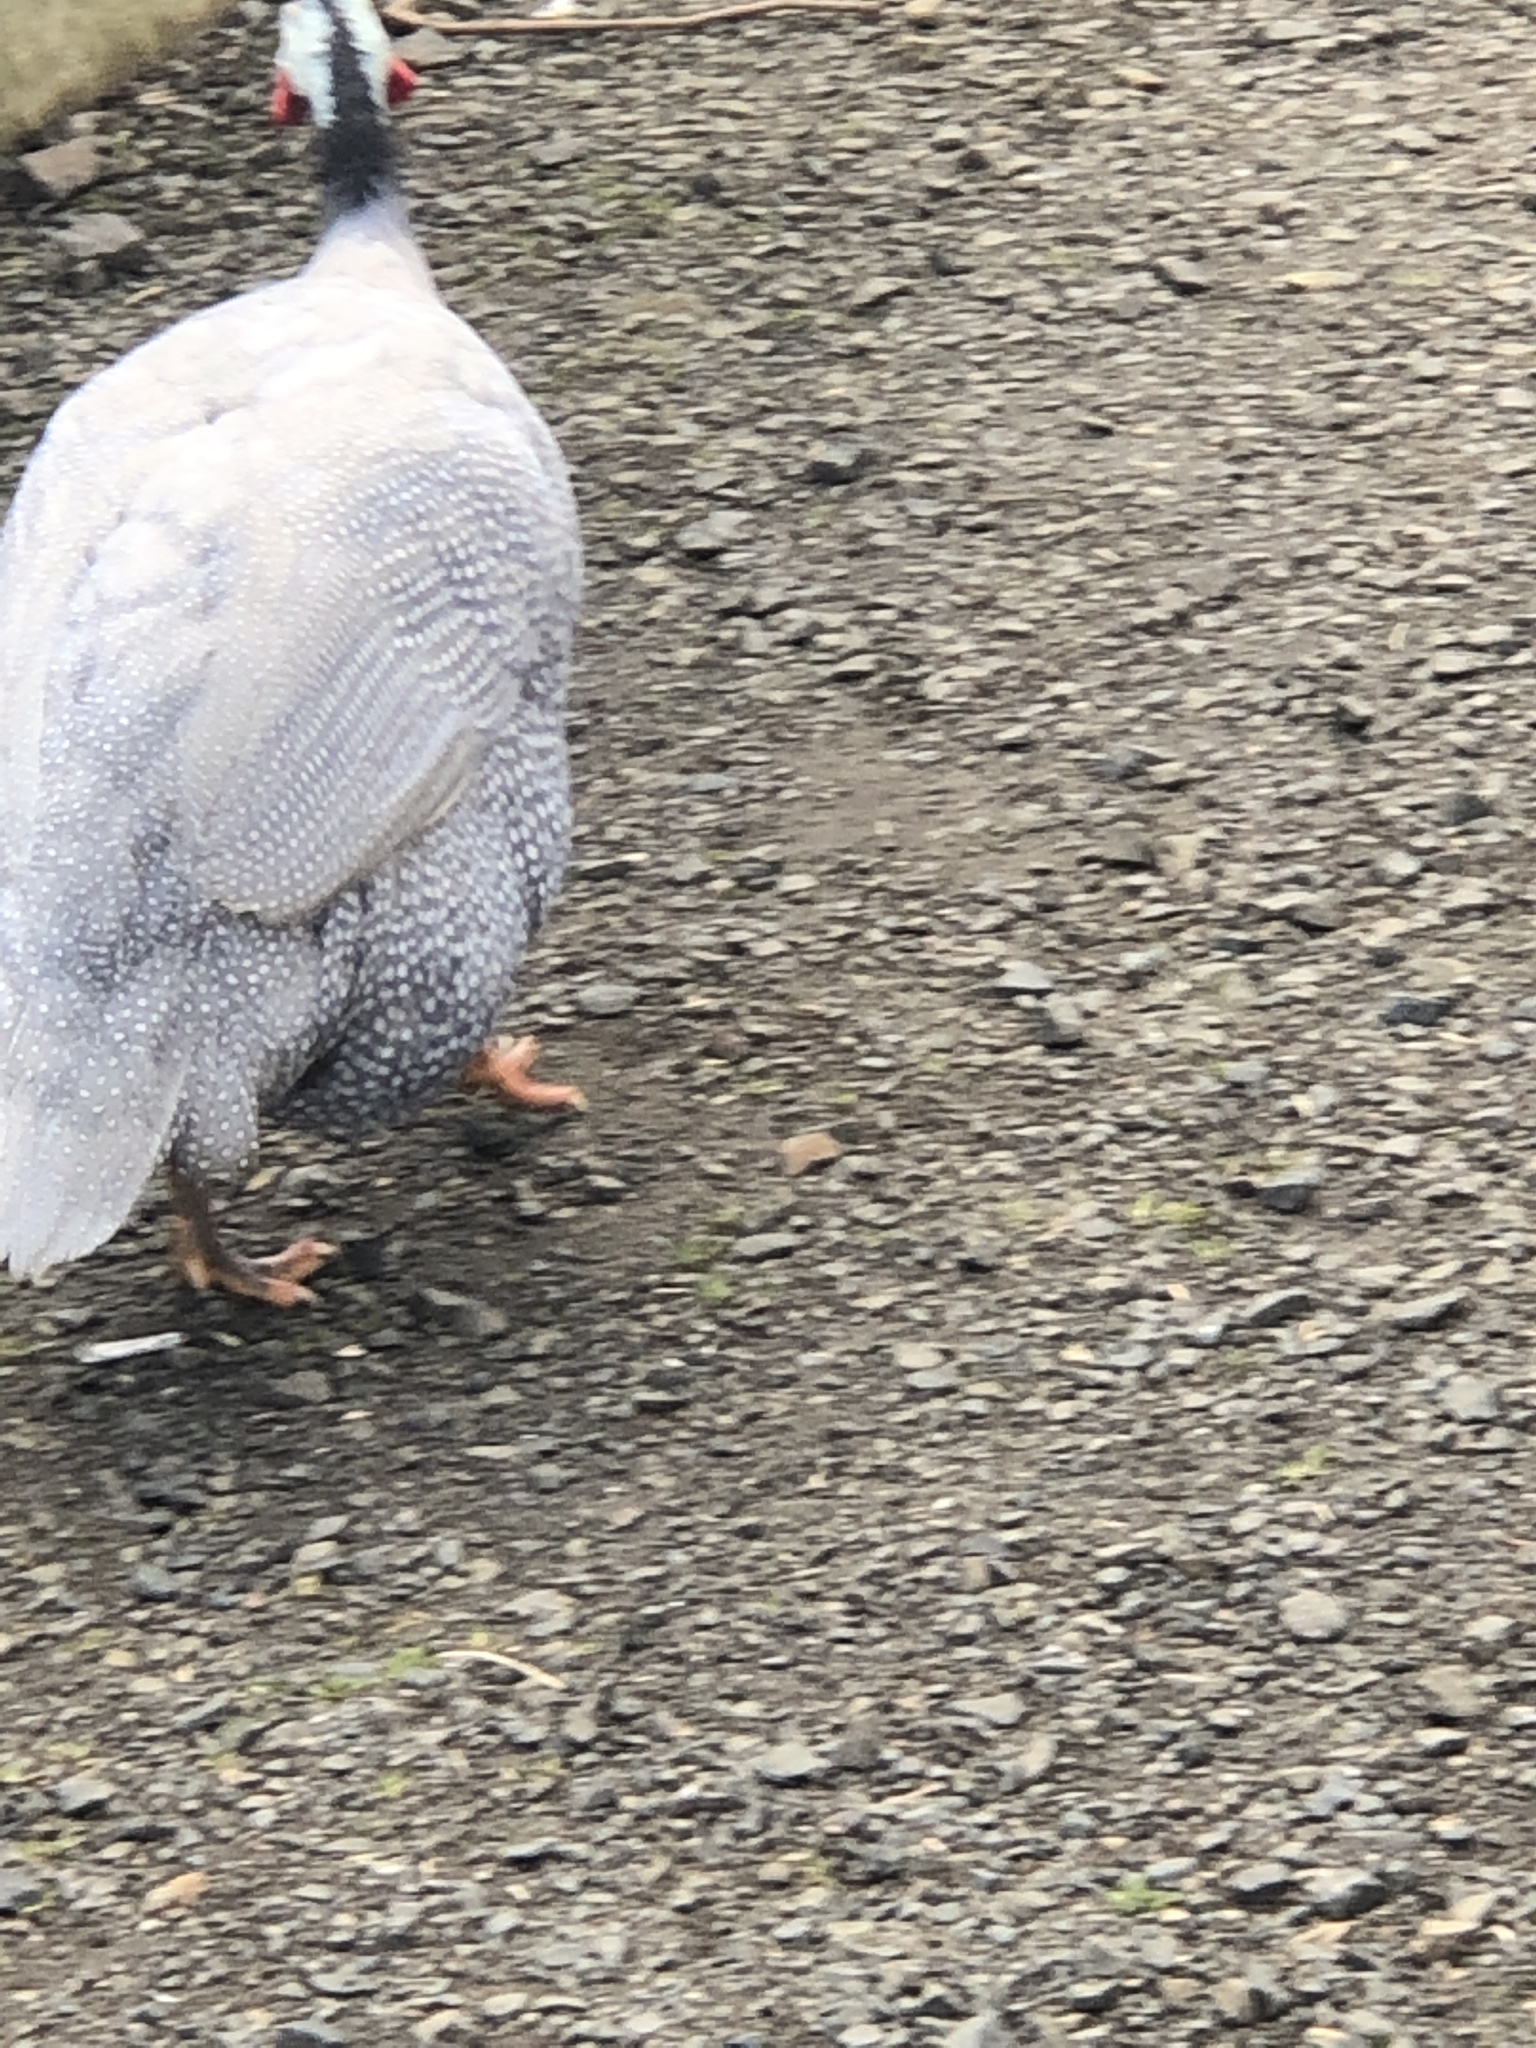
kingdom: Animalia
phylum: Chordata
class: Aves
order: Galliformes
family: Numididae
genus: Numida
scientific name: Numida meleagris
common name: Helmeted guineafowl
